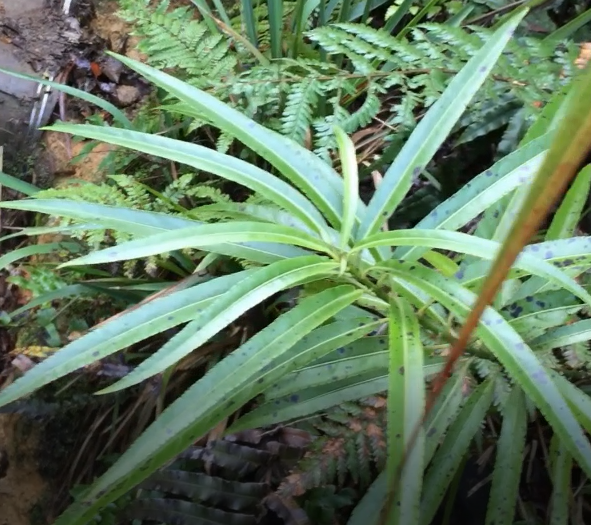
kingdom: Plantae
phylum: Tracheophyta
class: Magnoliopsida
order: Malpighiales
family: Violaceae
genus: Melicytus
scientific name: Melicytus lanceolatus
